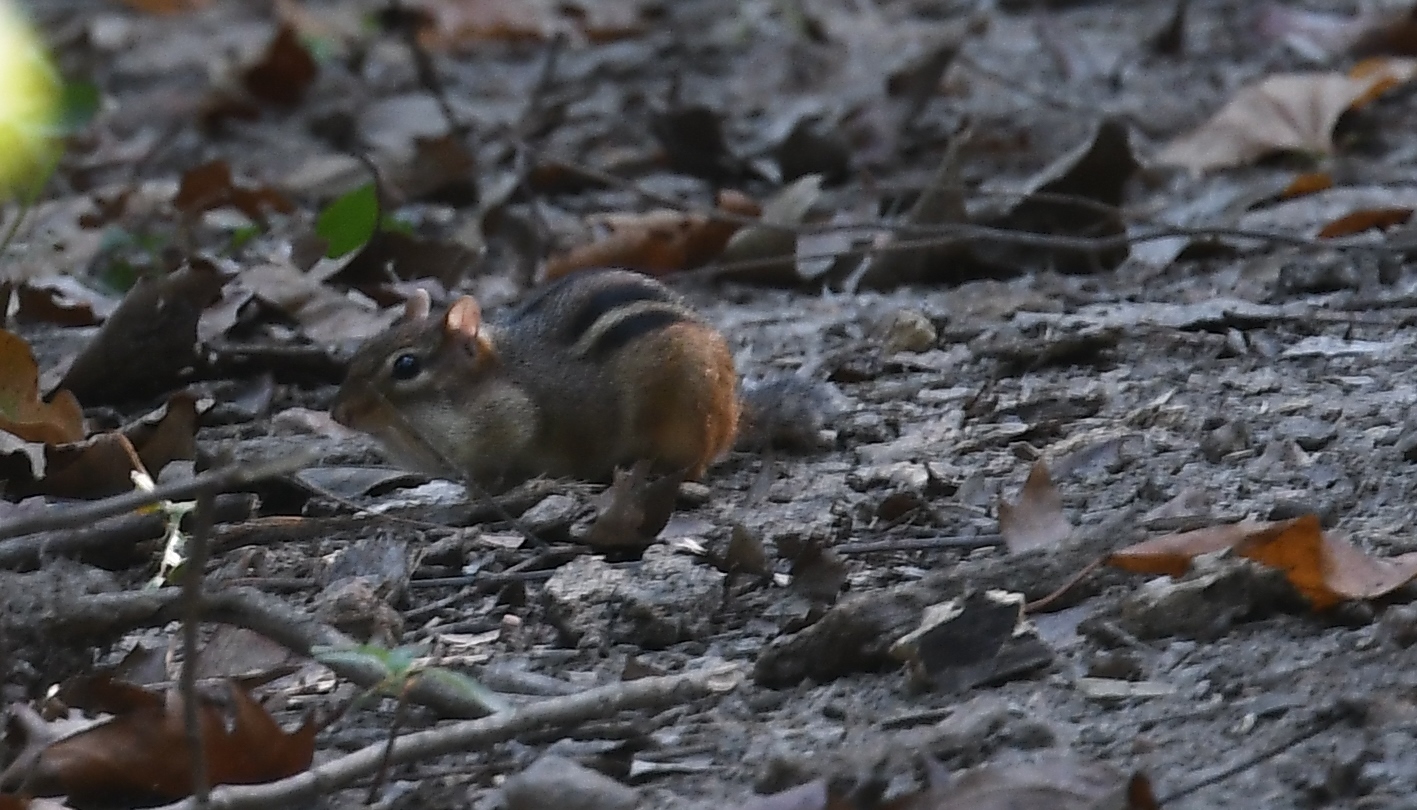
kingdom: Animalia
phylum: Chordata
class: Mammalia
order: Rodentia
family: Sciuridae
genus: Tamias
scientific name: Tamias striatus
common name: Eastern chipmunk
